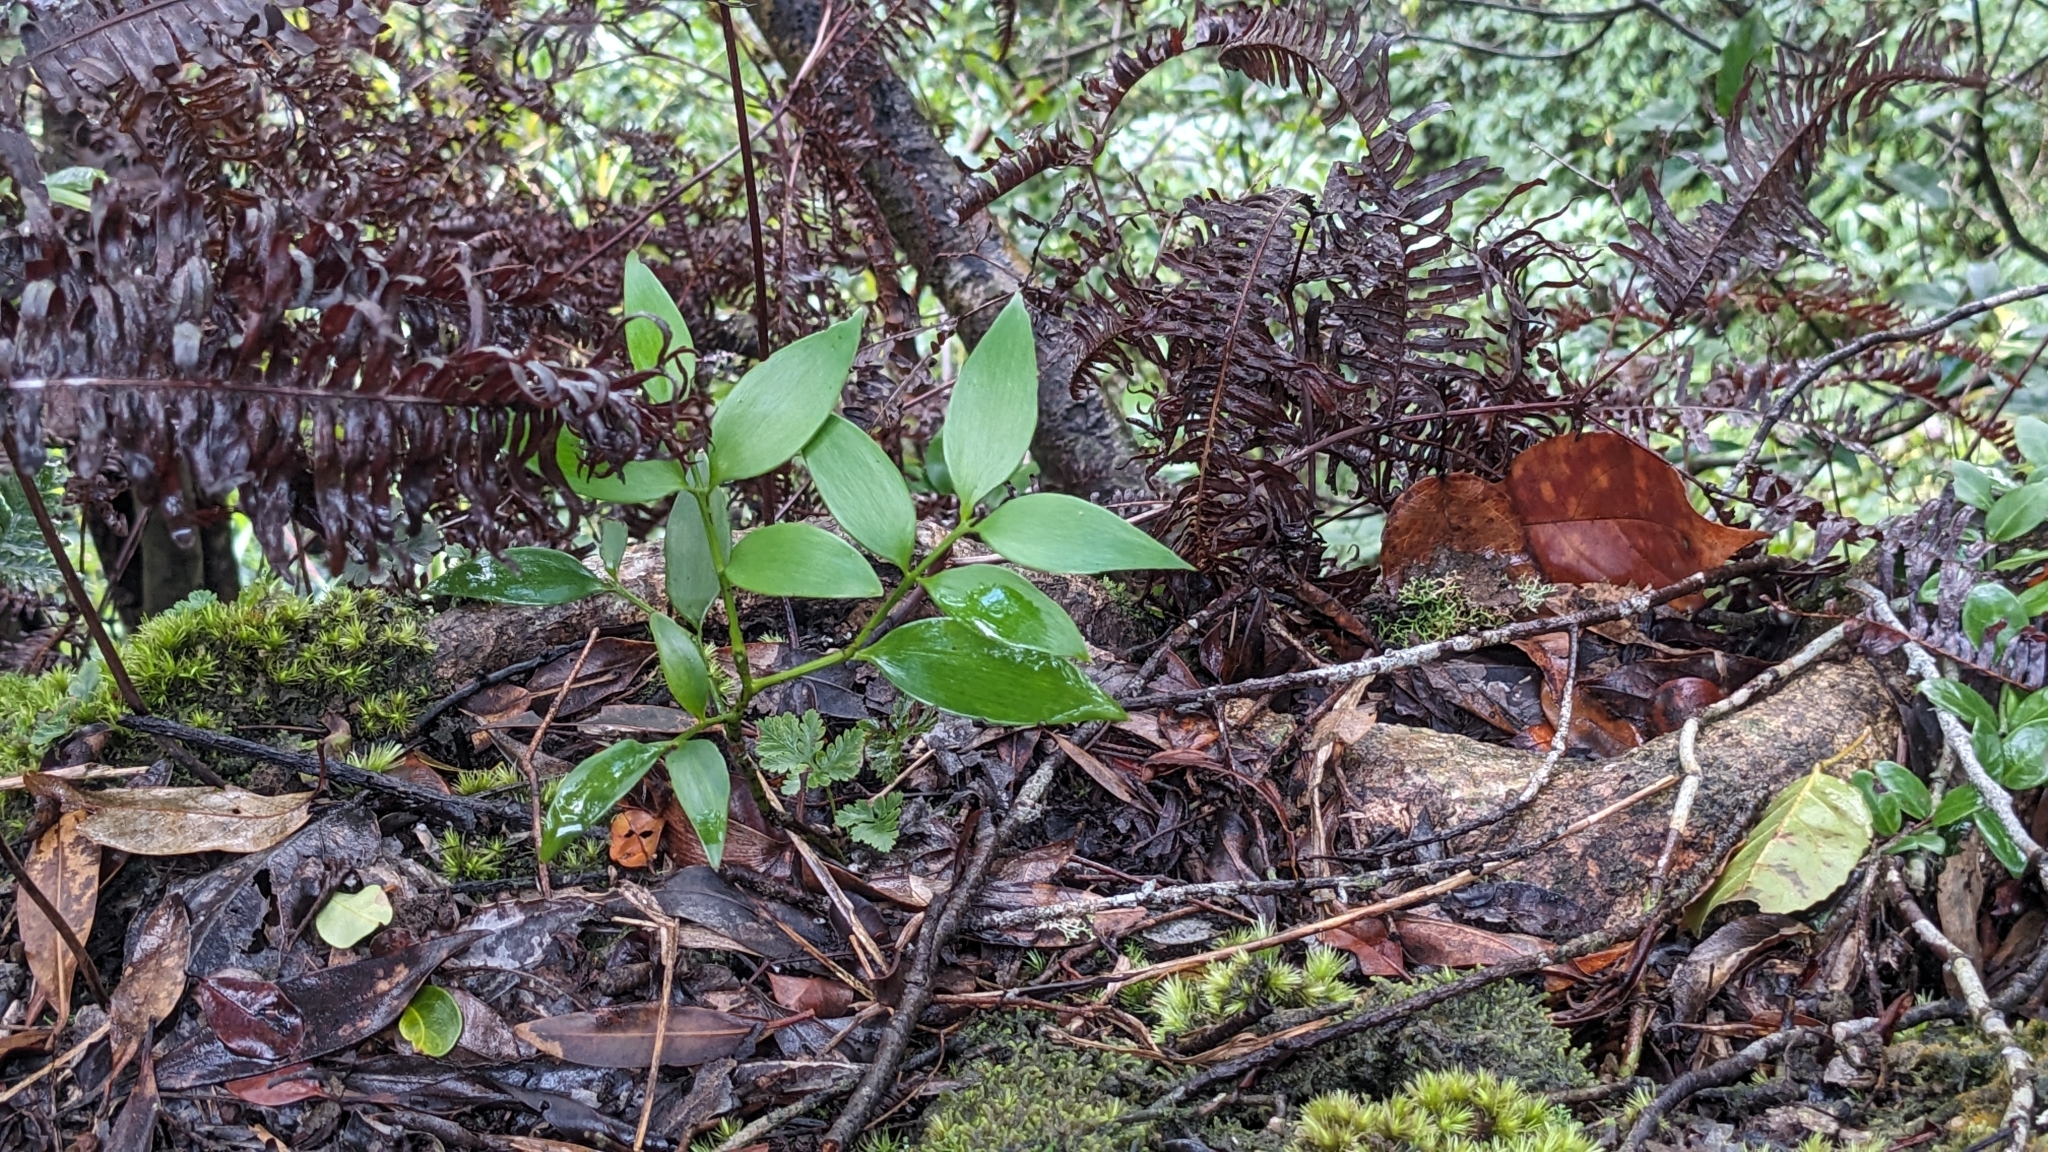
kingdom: Plantae
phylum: Tracheophyta
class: Pinopsida
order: Pinales
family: Podocarpaceae
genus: Nageia
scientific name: Nageia nagi
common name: Kaphal
